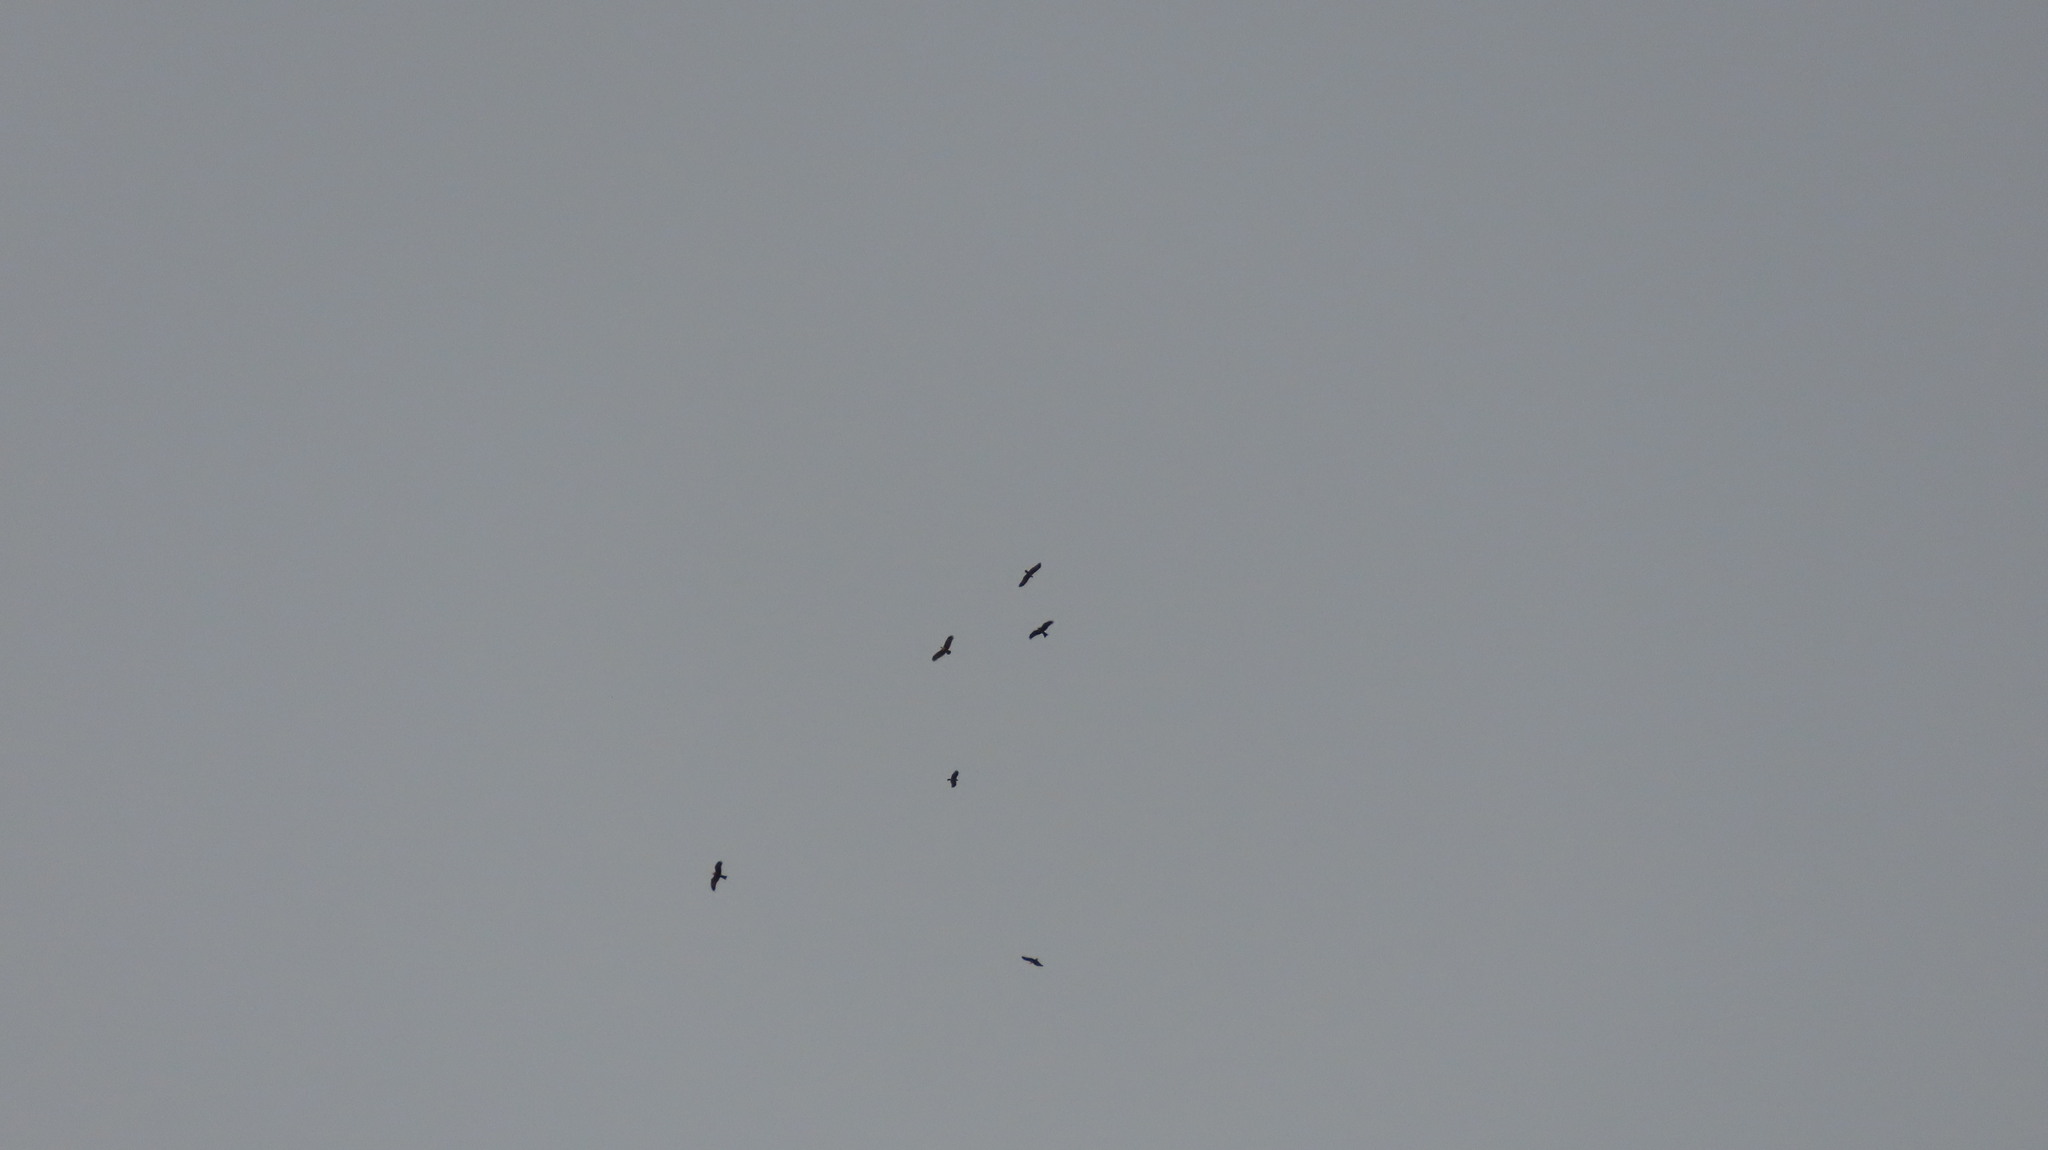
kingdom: Animalia
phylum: Chordata
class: Aves
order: Accipitriformes
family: Accipitridae
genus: Milvus
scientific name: Milvus migrans
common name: Black kite
